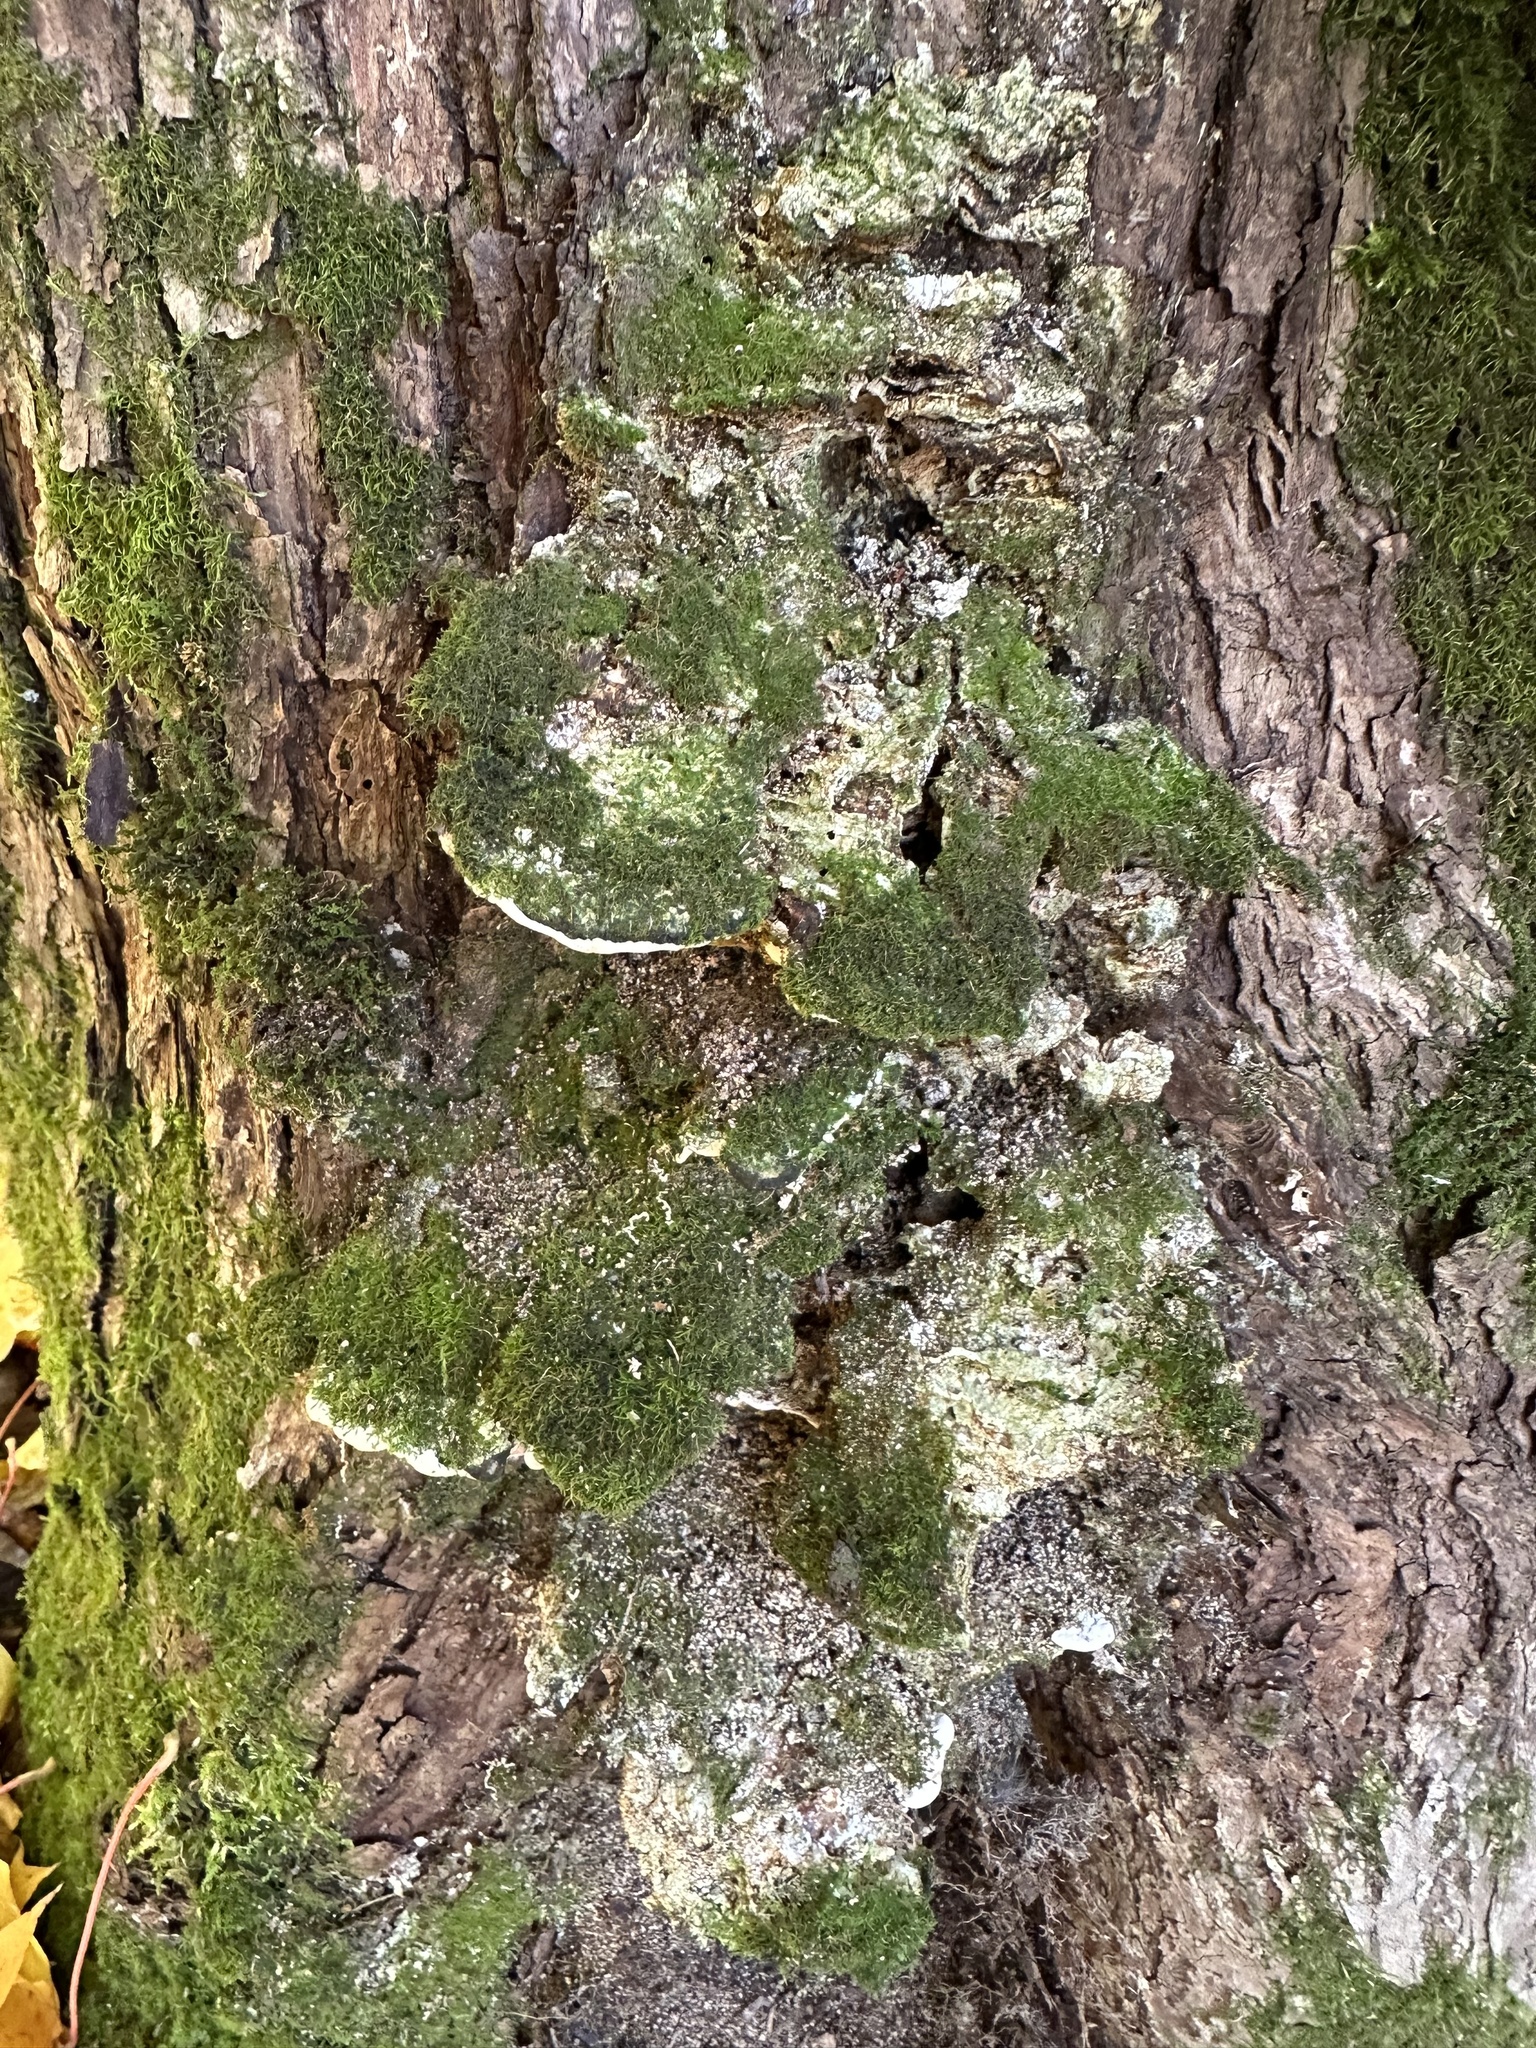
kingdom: Fungi
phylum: Basidiomycota
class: Agaricomycetes
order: Hymenochaetales
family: Oxyporaceae
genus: Oxyporus
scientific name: Oxyporus populinus
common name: Poplar bracket
